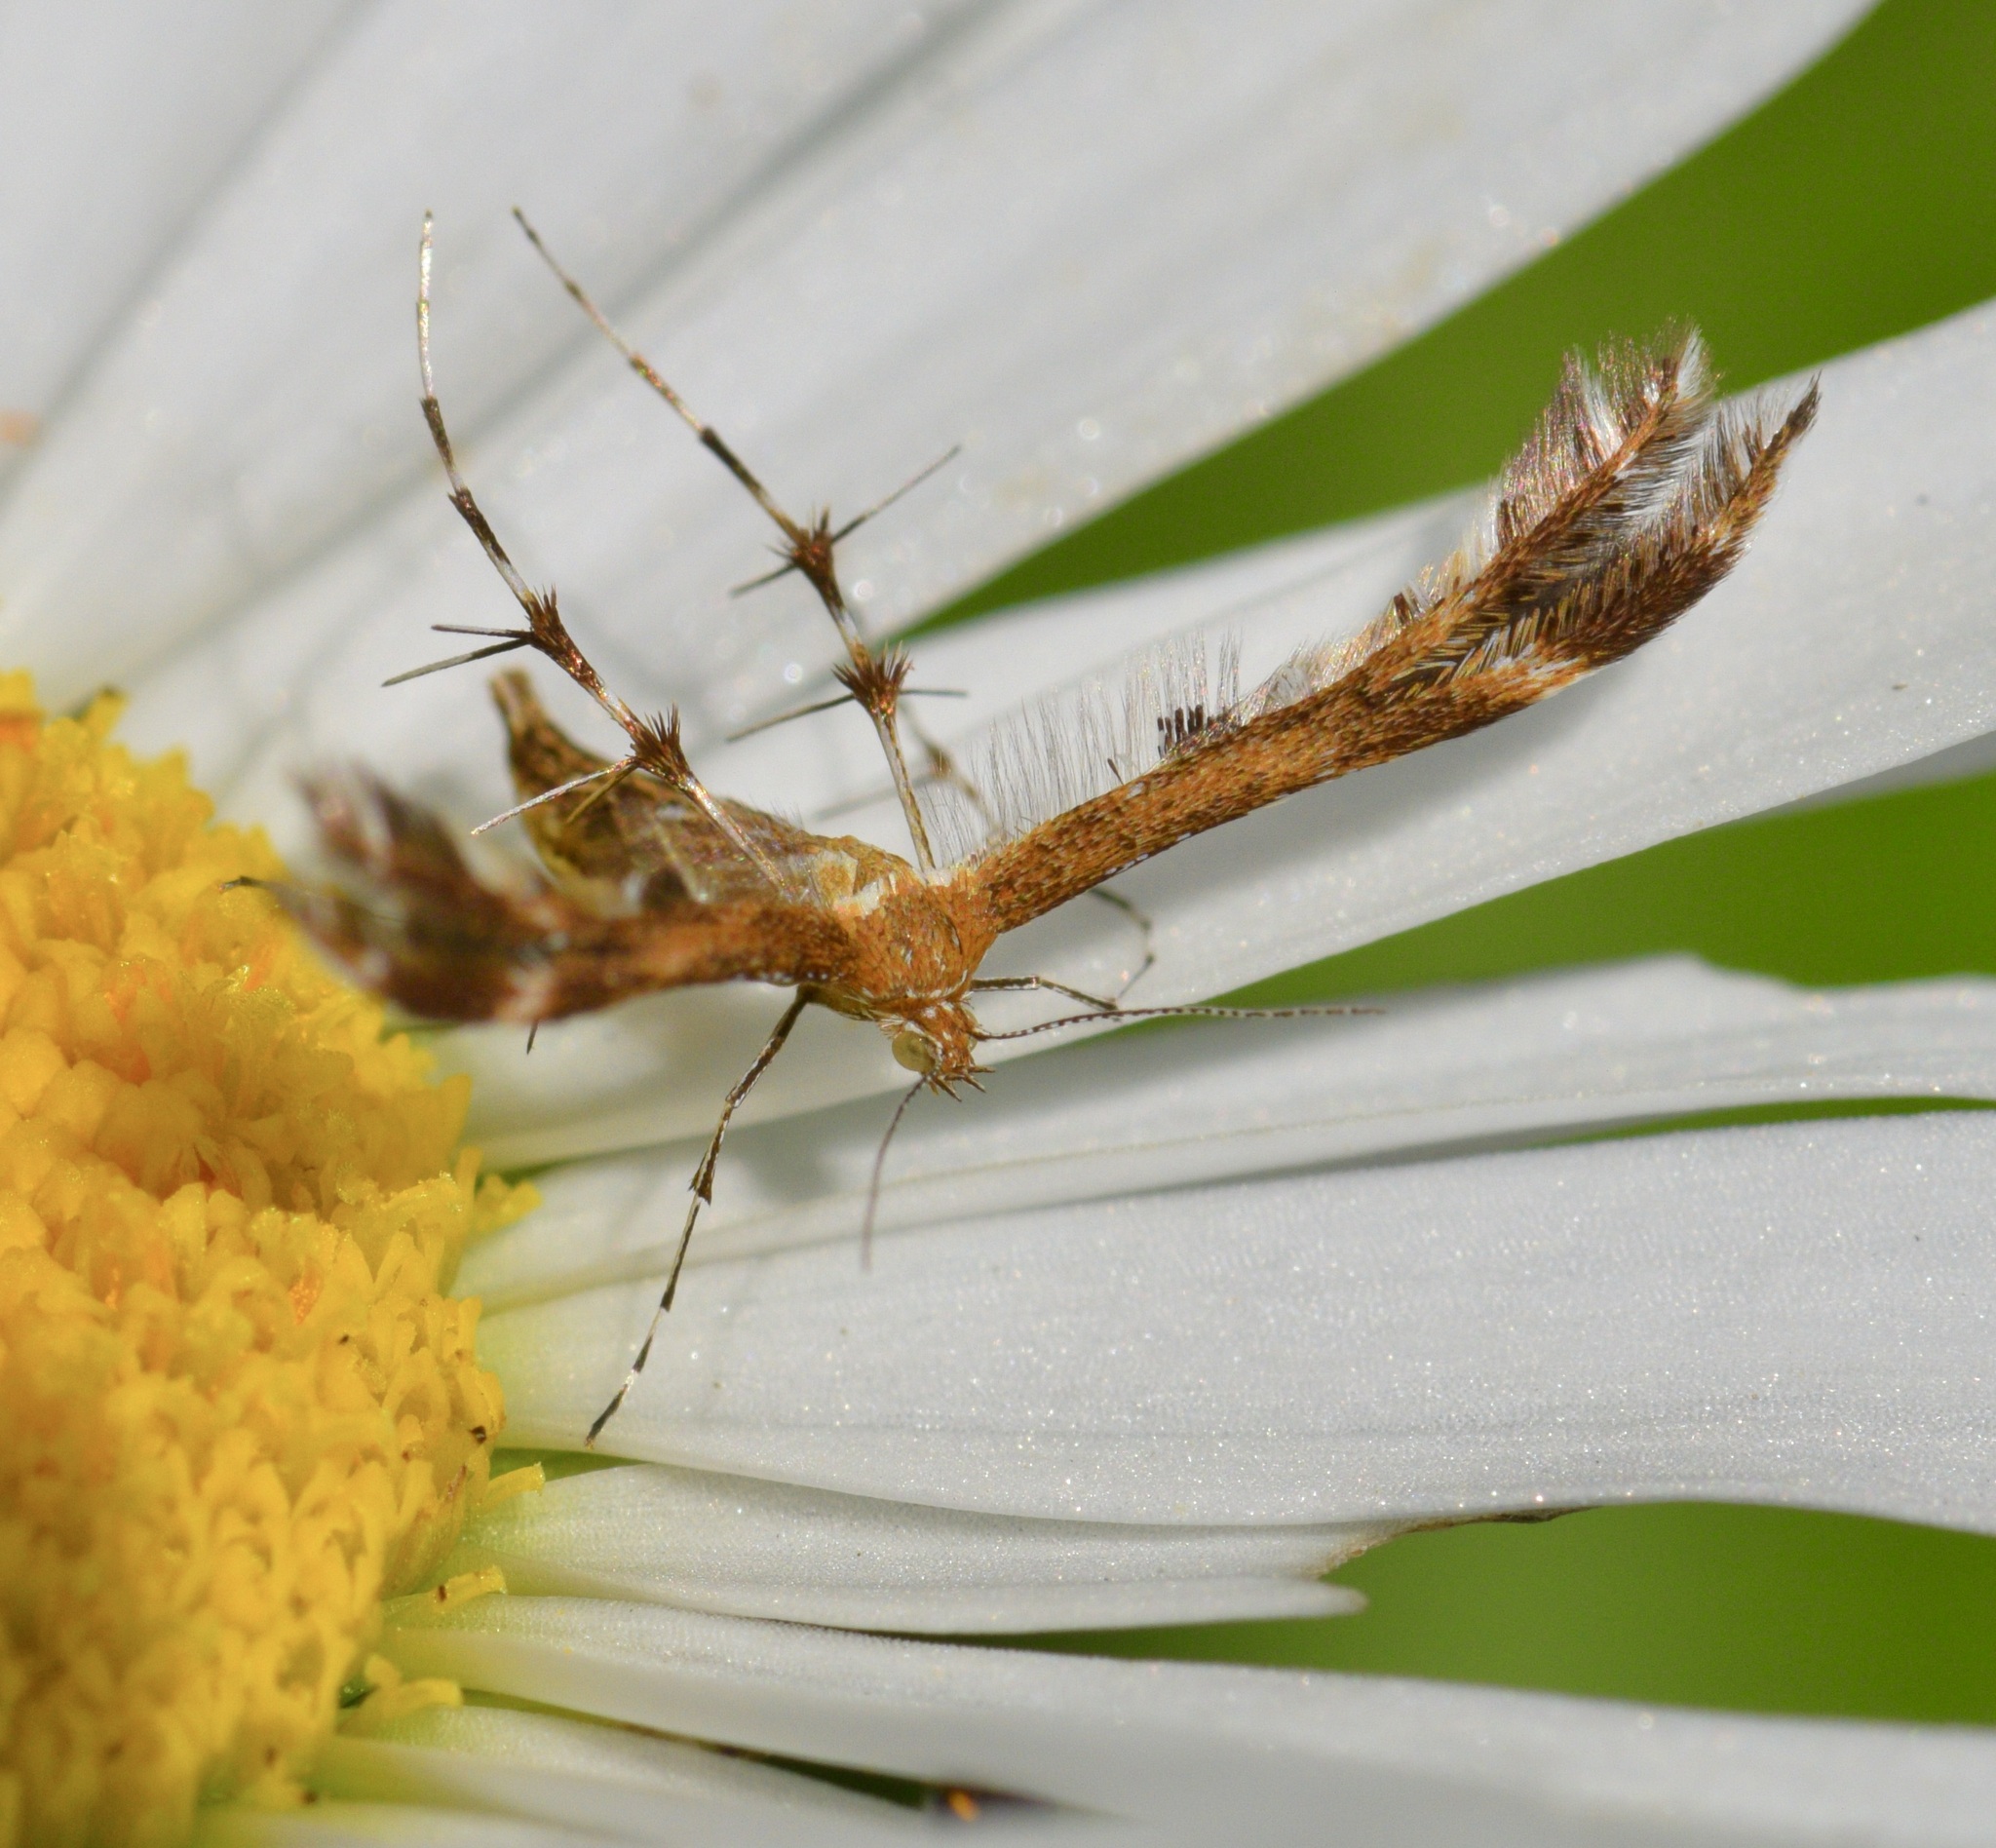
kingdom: Animalia
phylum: Arthropoda
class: Insecta
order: Lepidoptera
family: Pterophoridae
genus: Dejongia
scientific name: Dejongia lobidactylus
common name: Lobed plume moth
